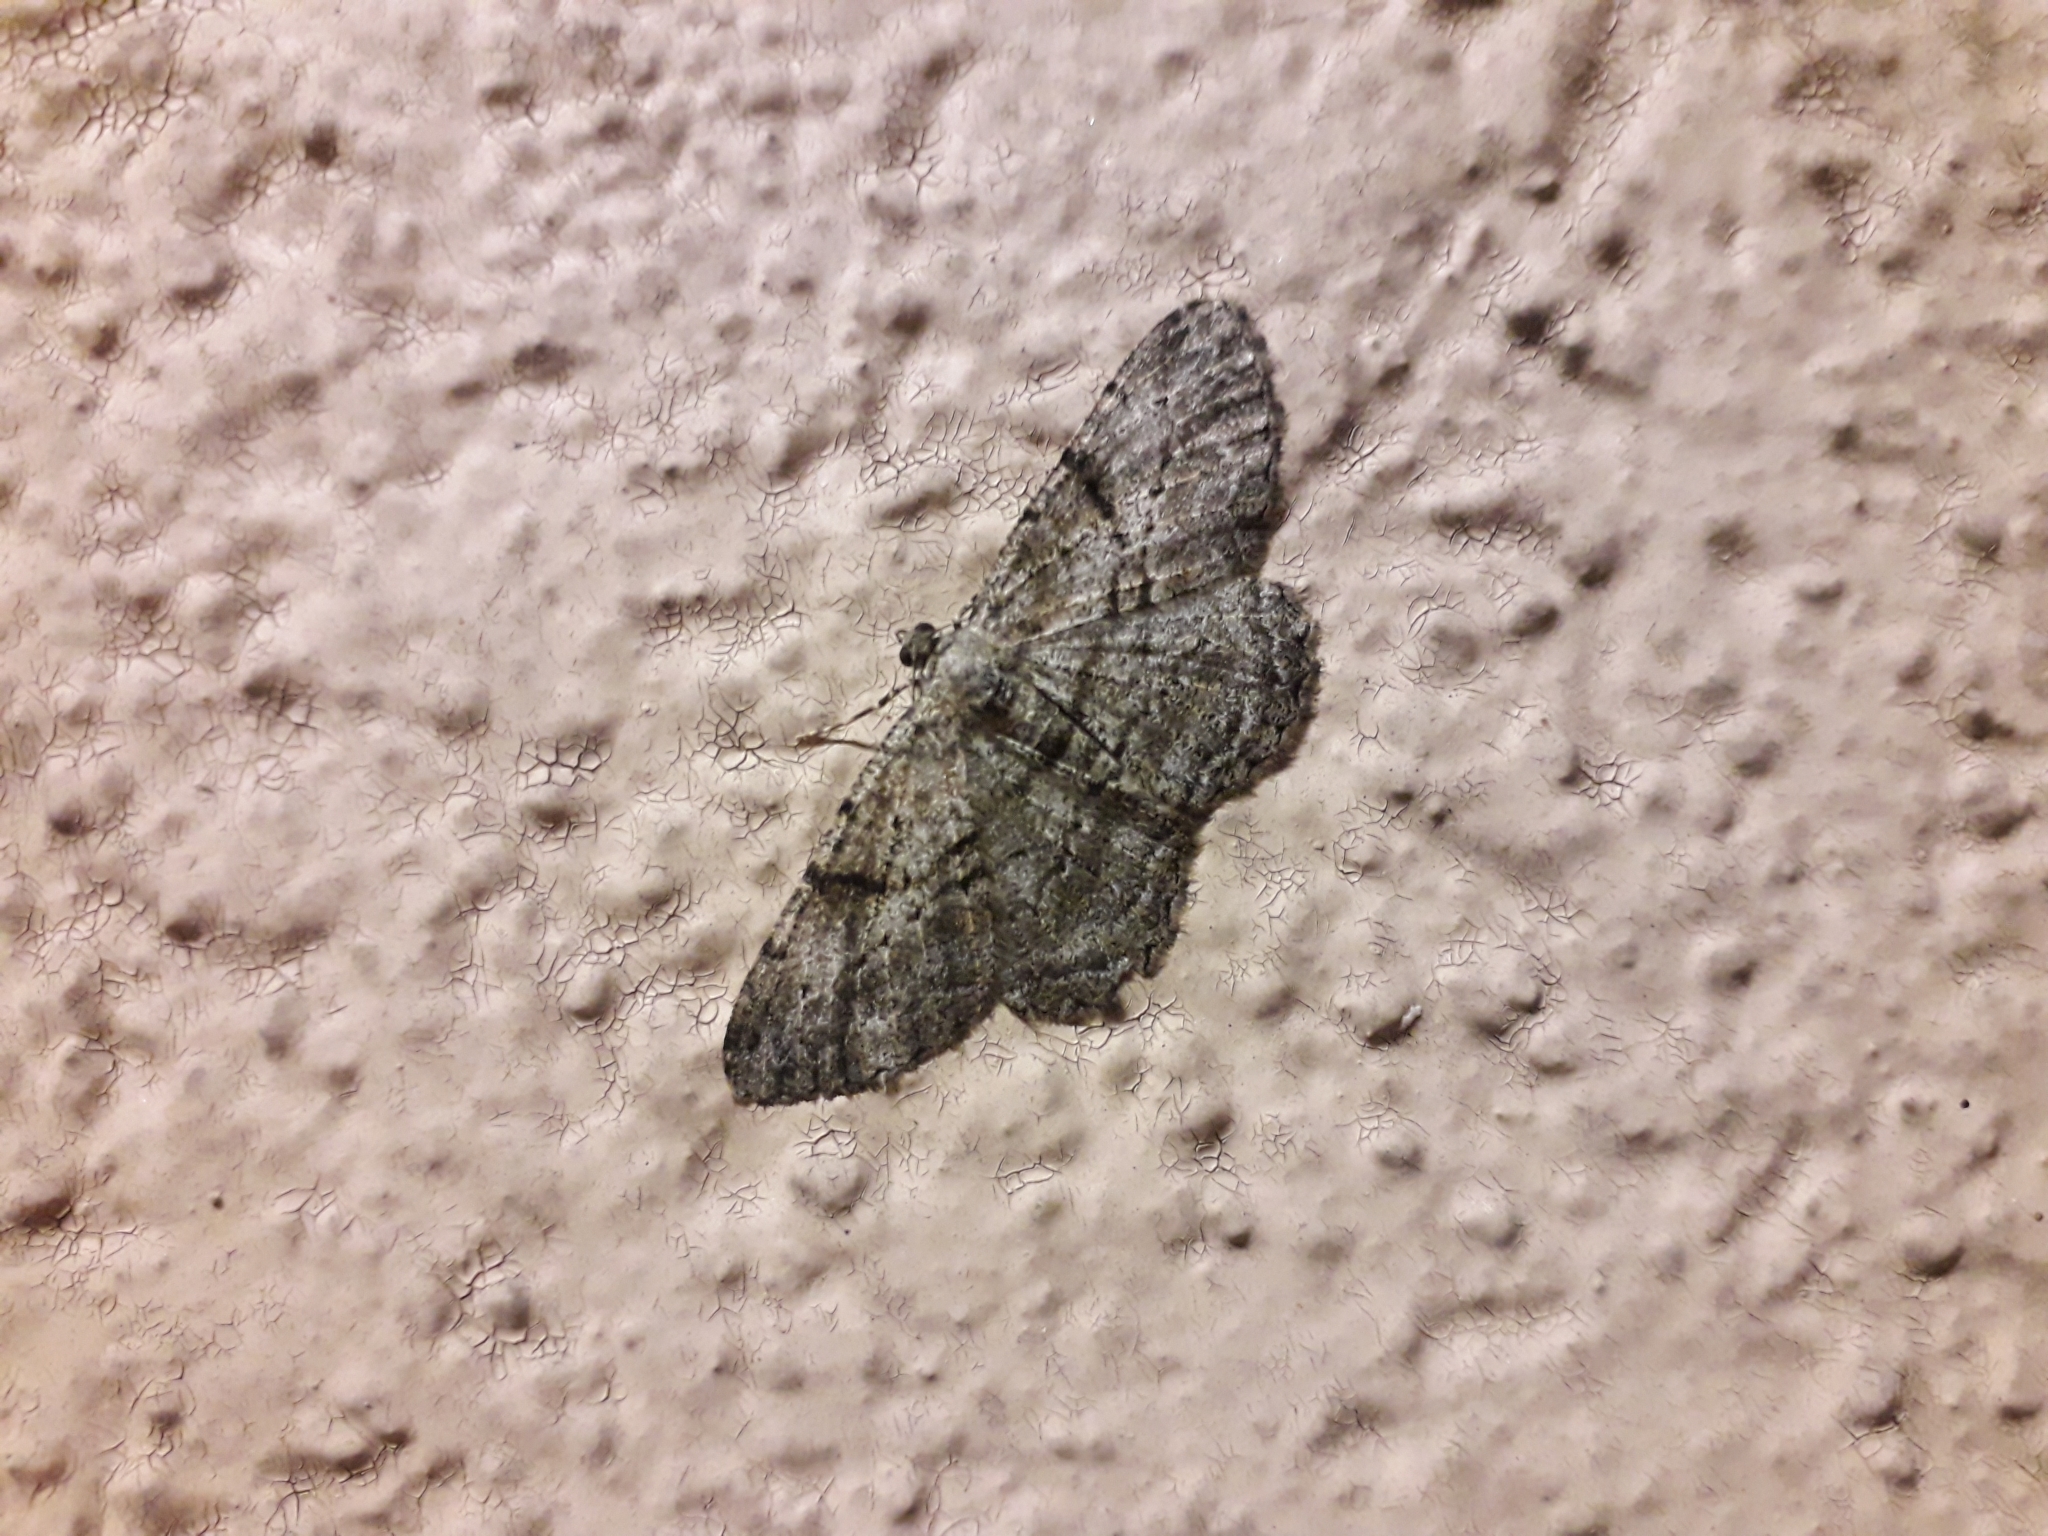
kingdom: Animalia
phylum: Arthropoda
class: Insecta
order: Lepidoptera
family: Geometridae
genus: Peribatodes
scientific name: Peribatodes rhomboidaria
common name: Willow beauty
